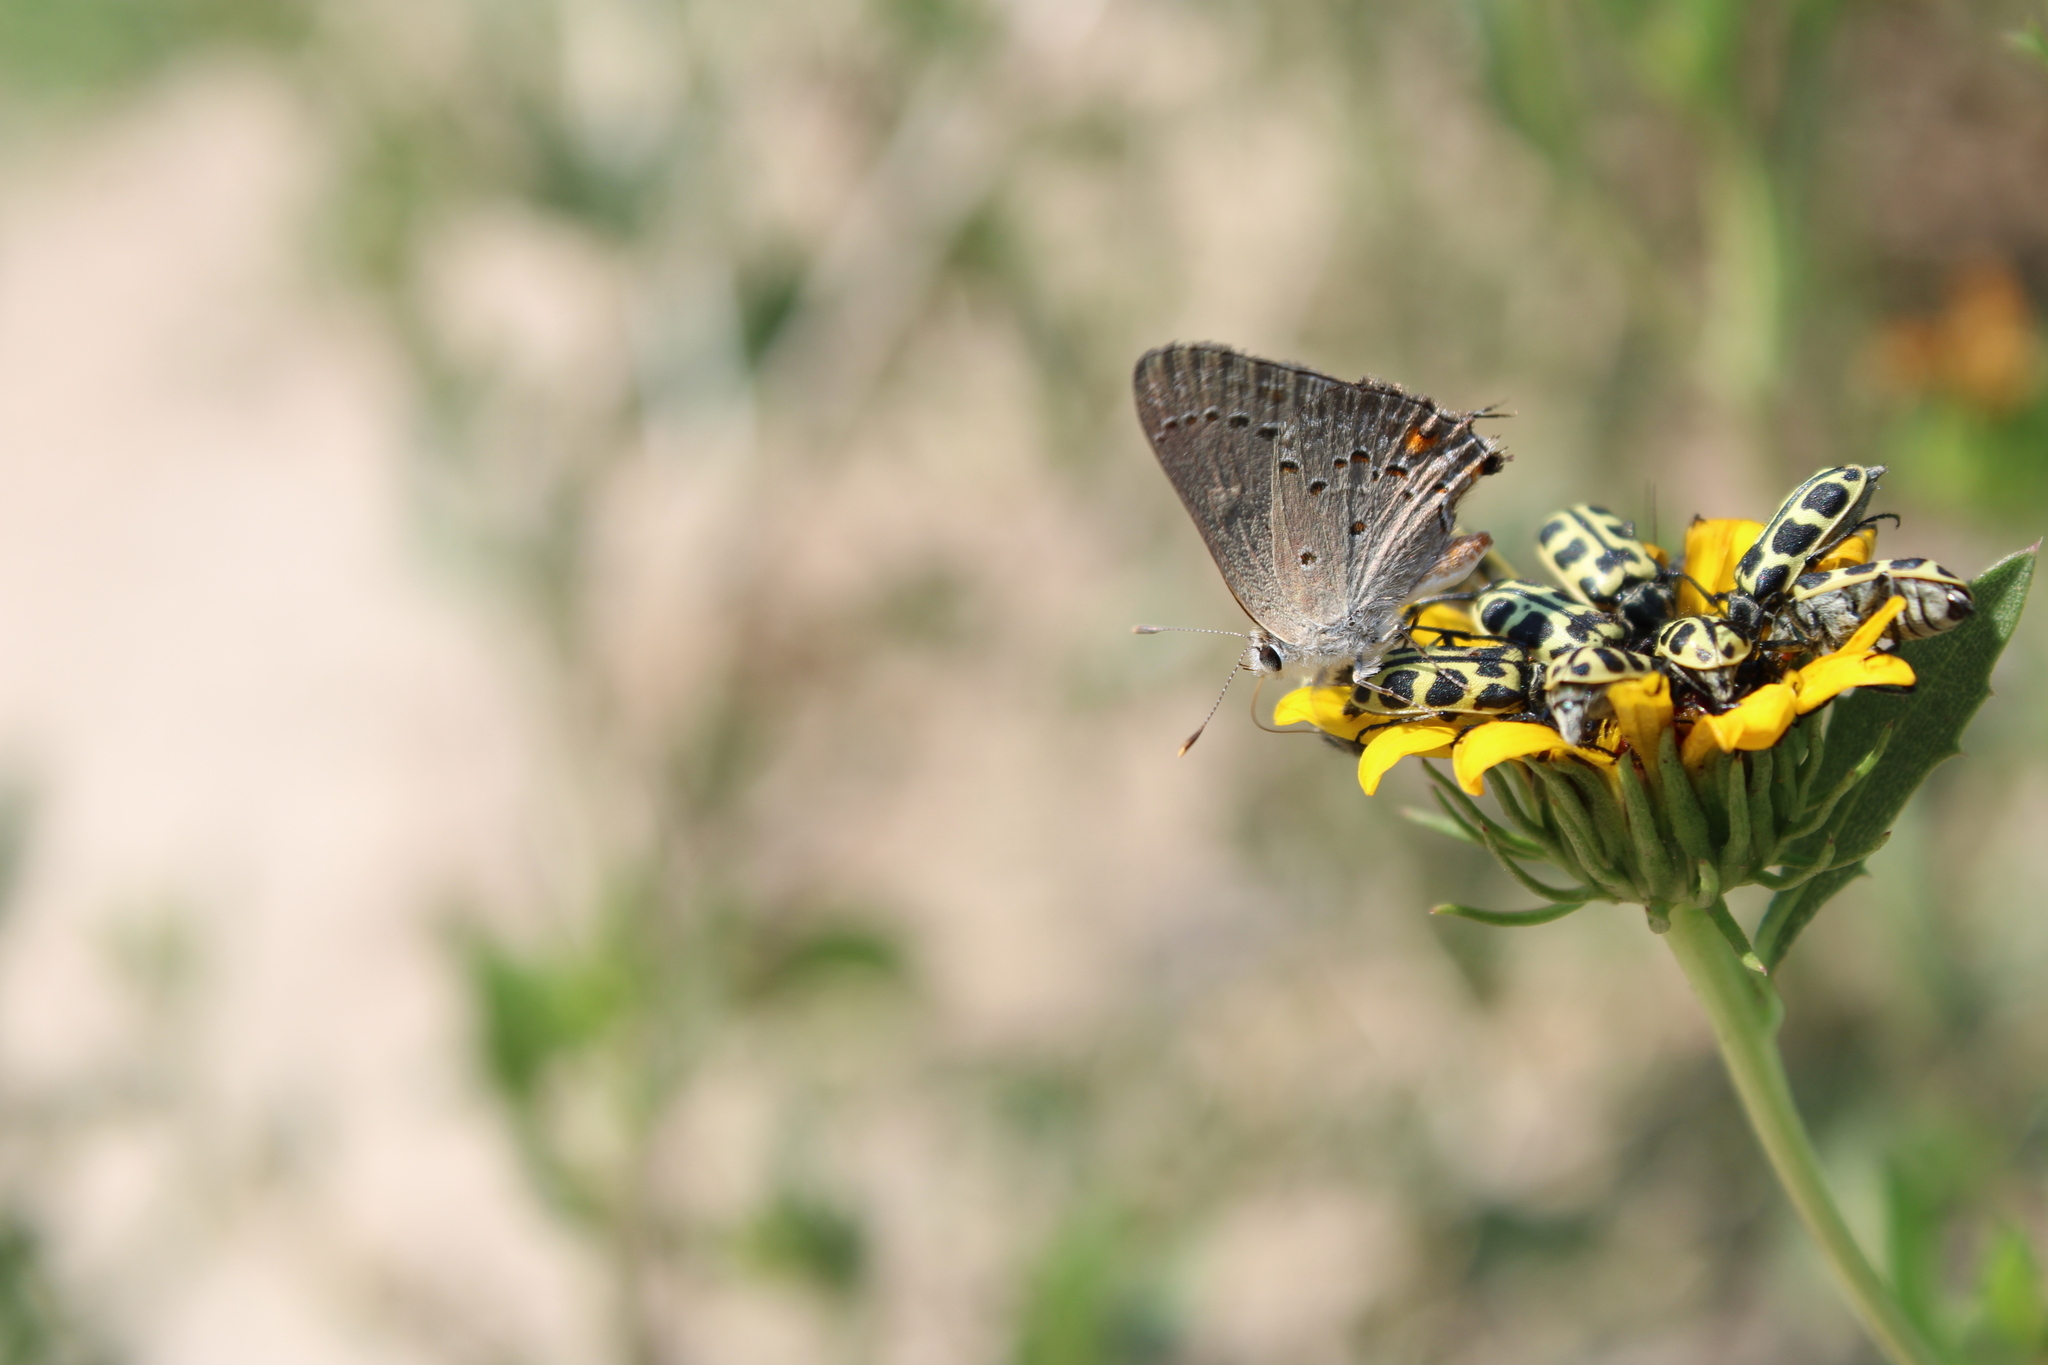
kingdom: Animalia
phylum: Arthropoda
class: Insecta
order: Lepidoptera
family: Lycaenidae
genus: Strymon
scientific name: Strymon eurytulus
